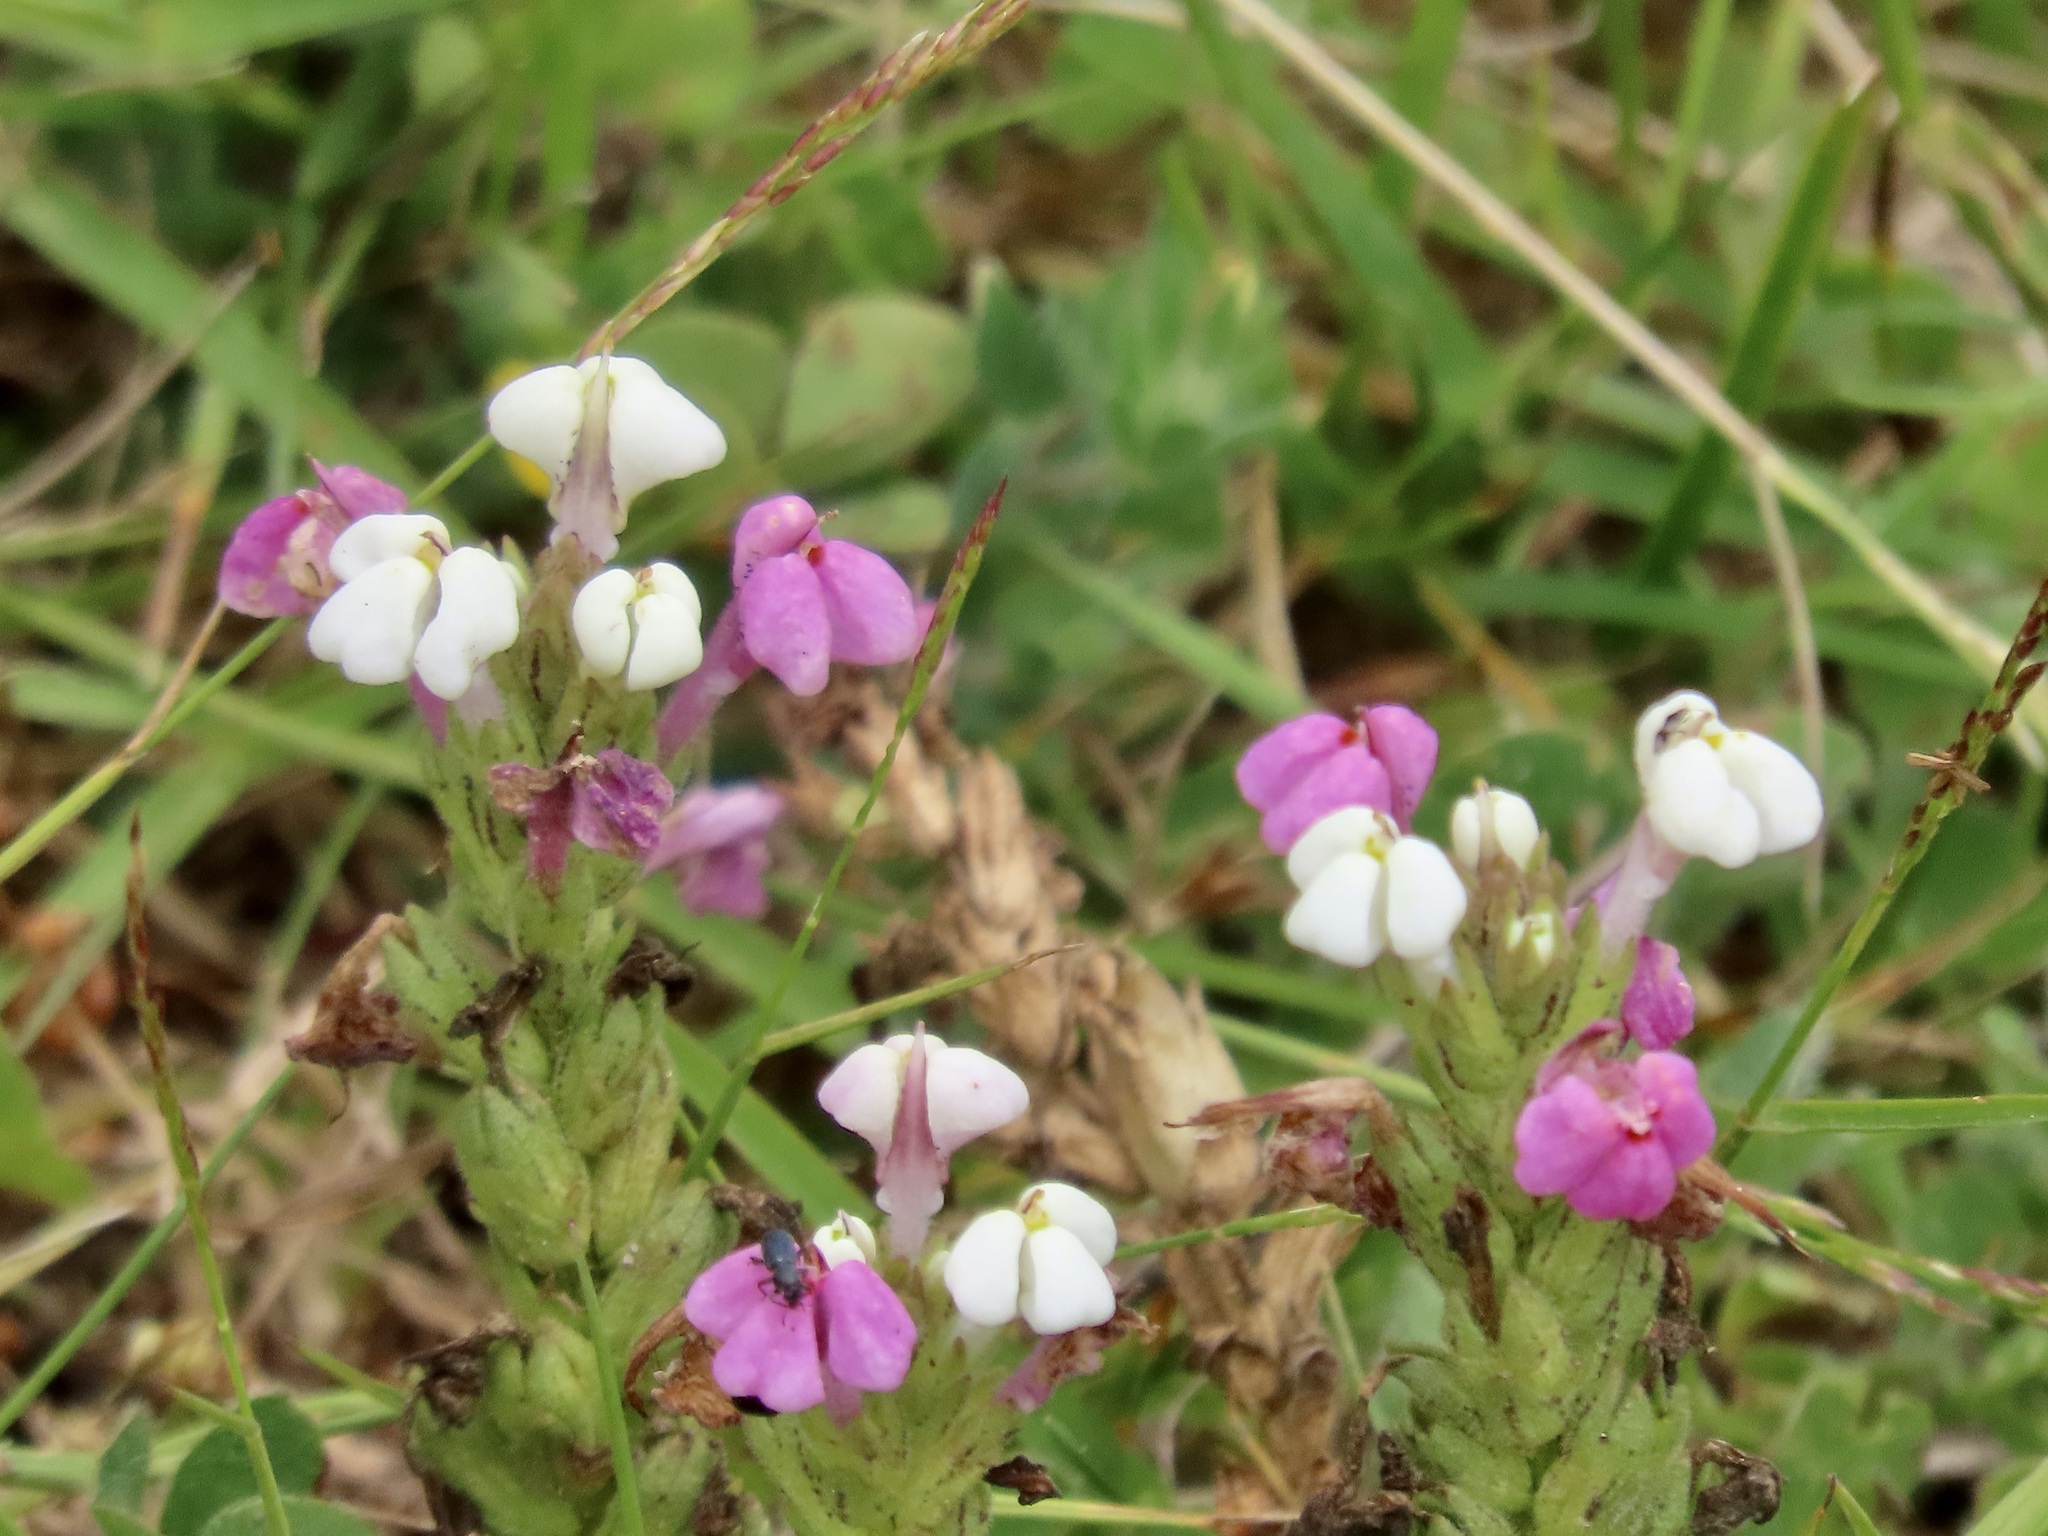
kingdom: Plantae
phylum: Tracheophyta
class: Magnoliopsida
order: Lamiales
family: Orobanchaceae
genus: Triphysaria
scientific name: Triphysaria versicolor
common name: Bearded false owl-clover
